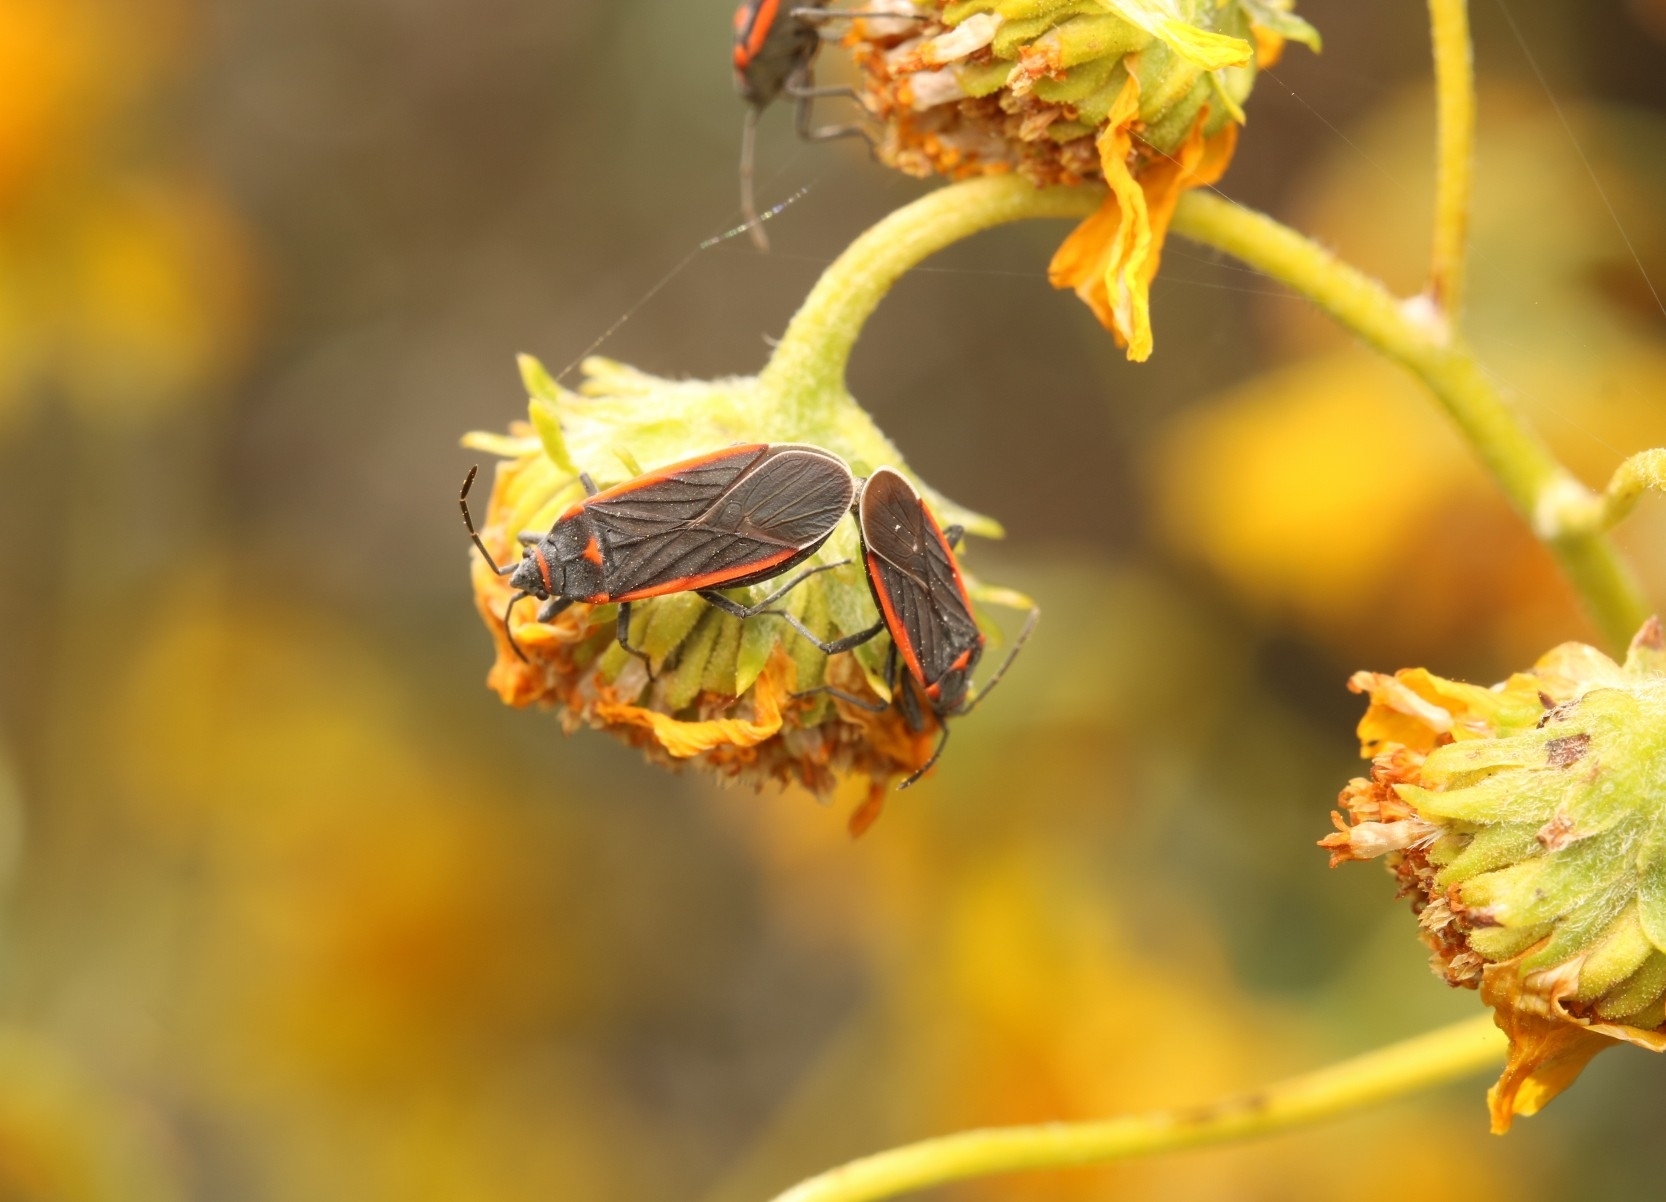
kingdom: Animalia
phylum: Arthropoda
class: Insecta
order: Hemiptera
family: Lygaeidae
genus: Melacoryphus
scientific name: Melacoryphus lateralis
